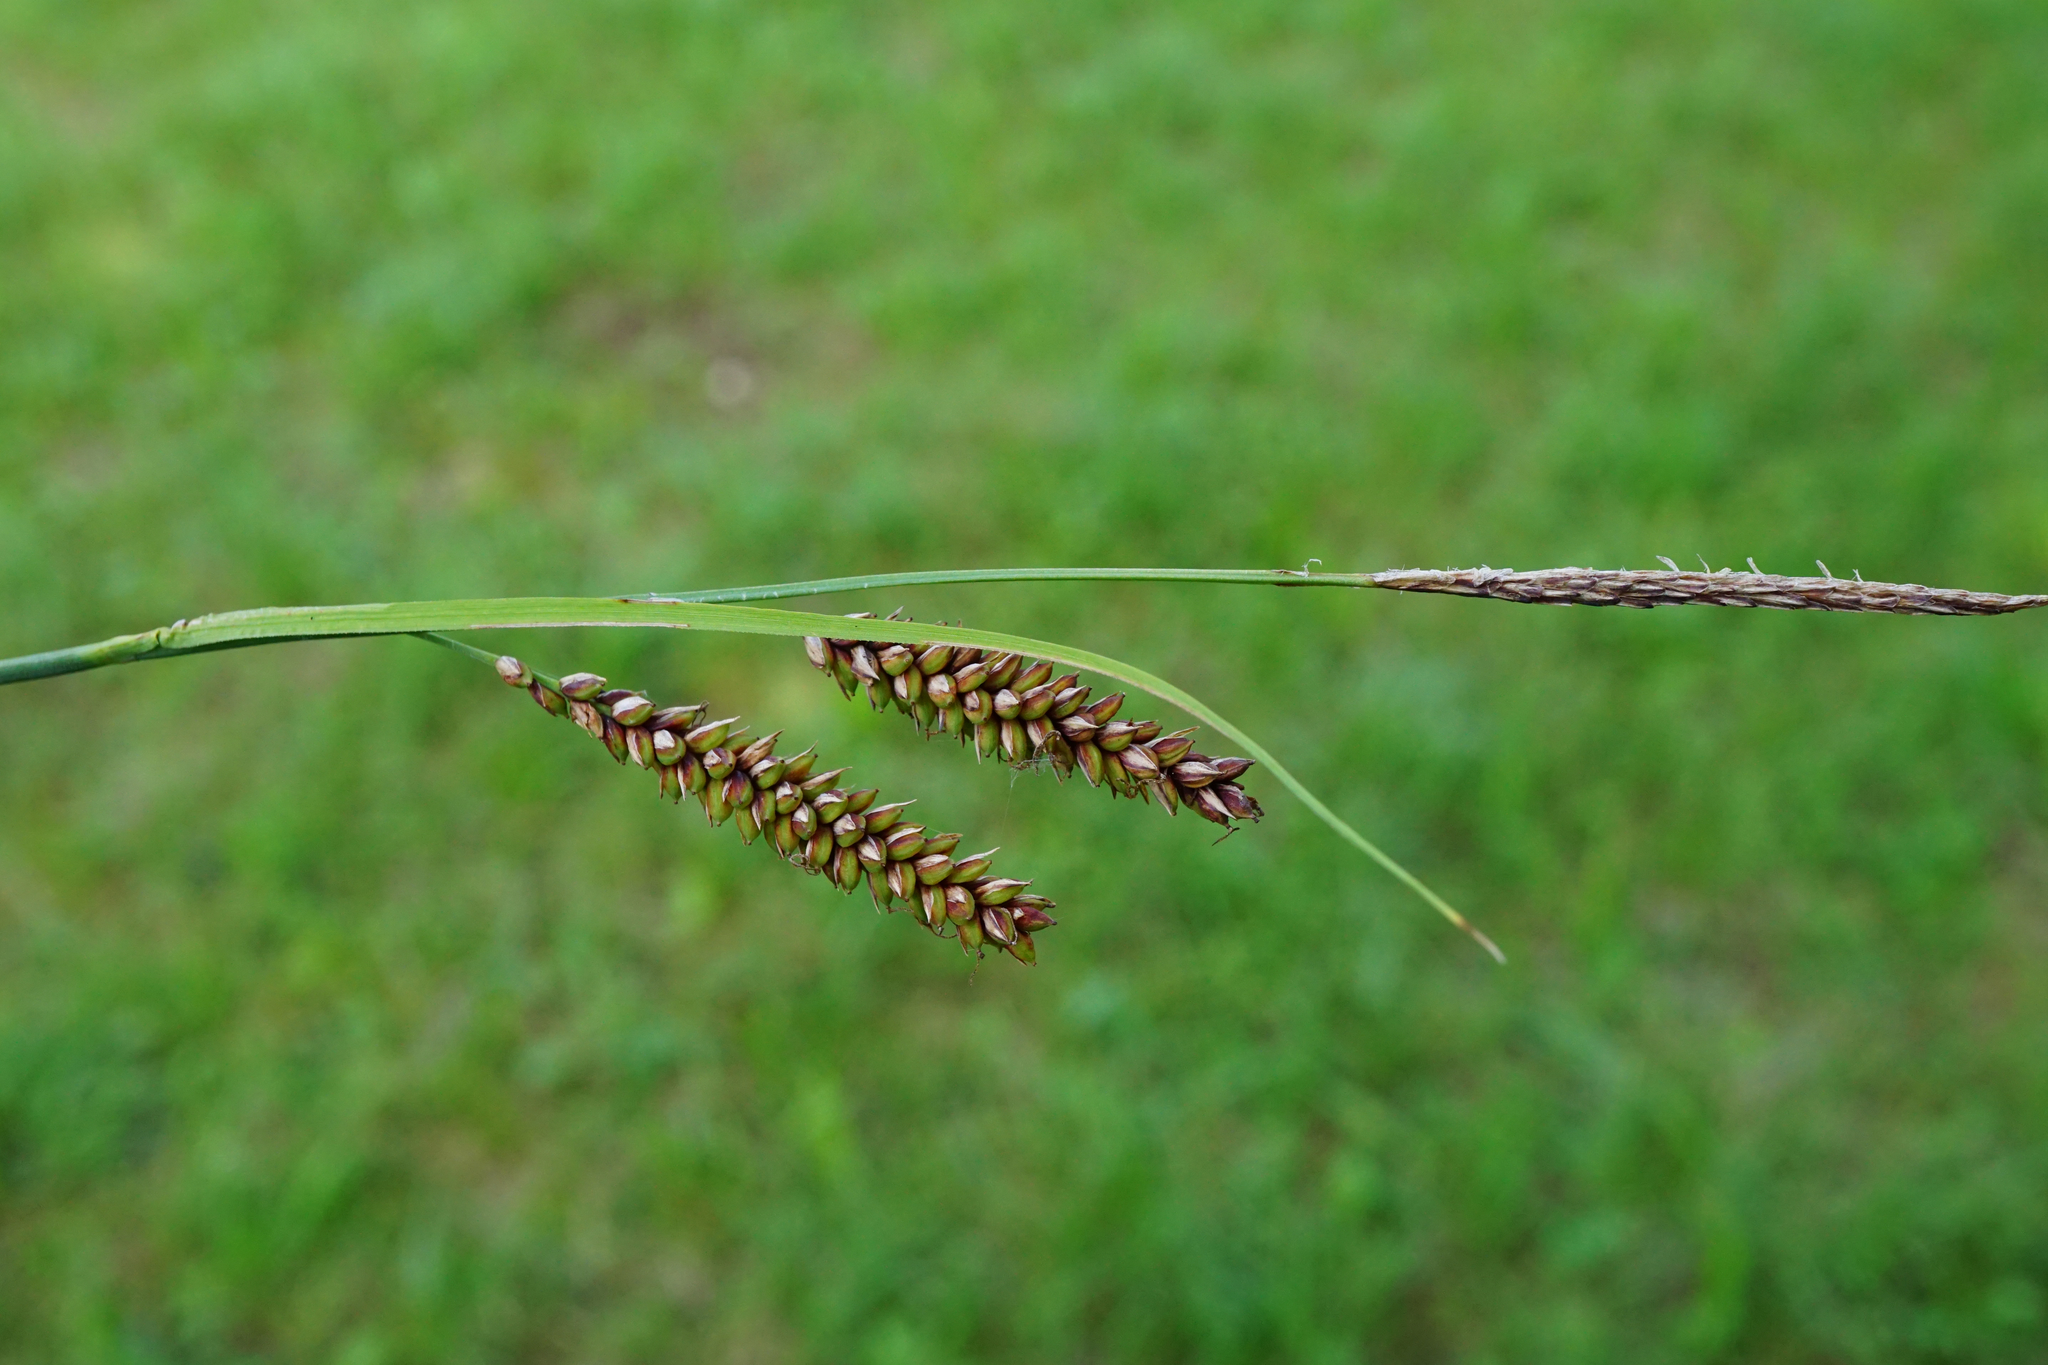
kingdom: Plantae
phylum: Tracheophyta
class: Liliopsida
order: Poales
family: Cyperaceae
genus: Carex
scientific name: Carex flacca
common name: Glaucous sedge
